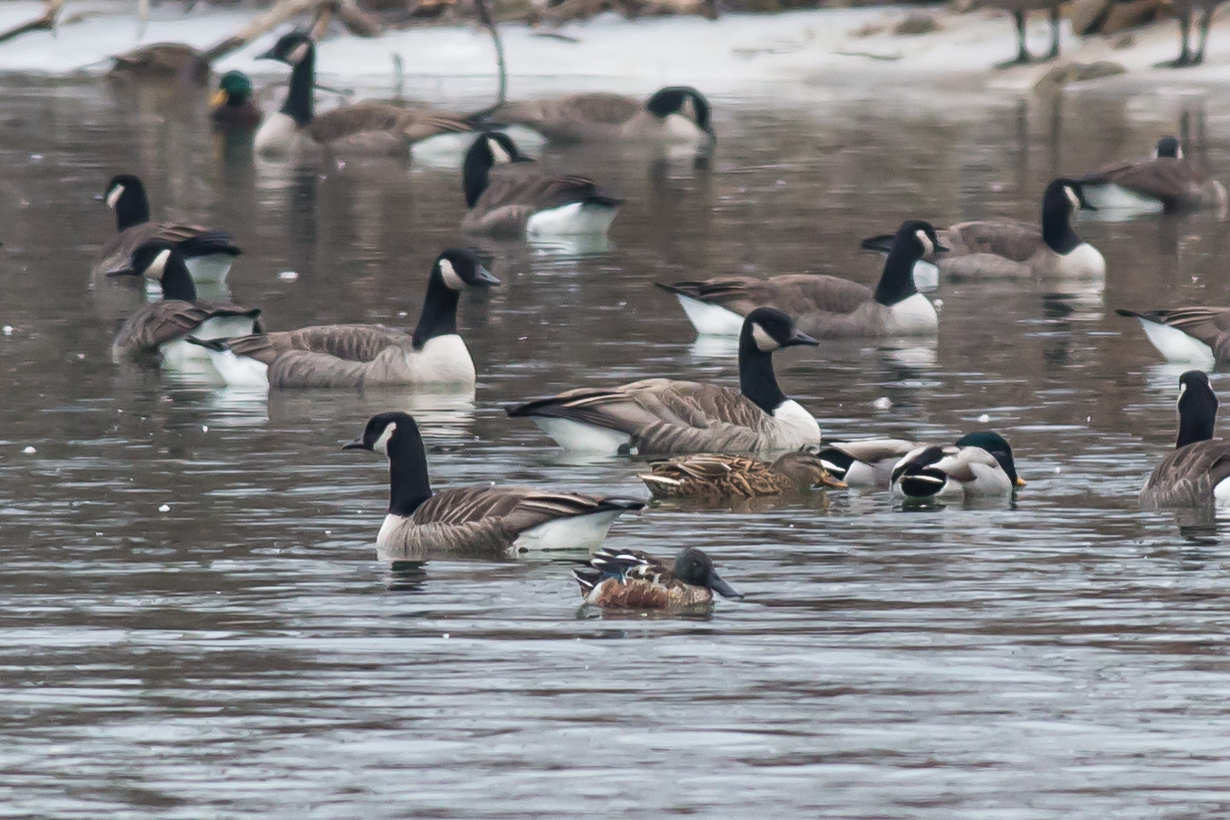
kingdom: Animalia
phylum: Chordata
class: Aves
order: Anseriformes
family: Anatidae
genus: Spatula
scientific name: Spatula clypeata
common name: Northern shoveler
